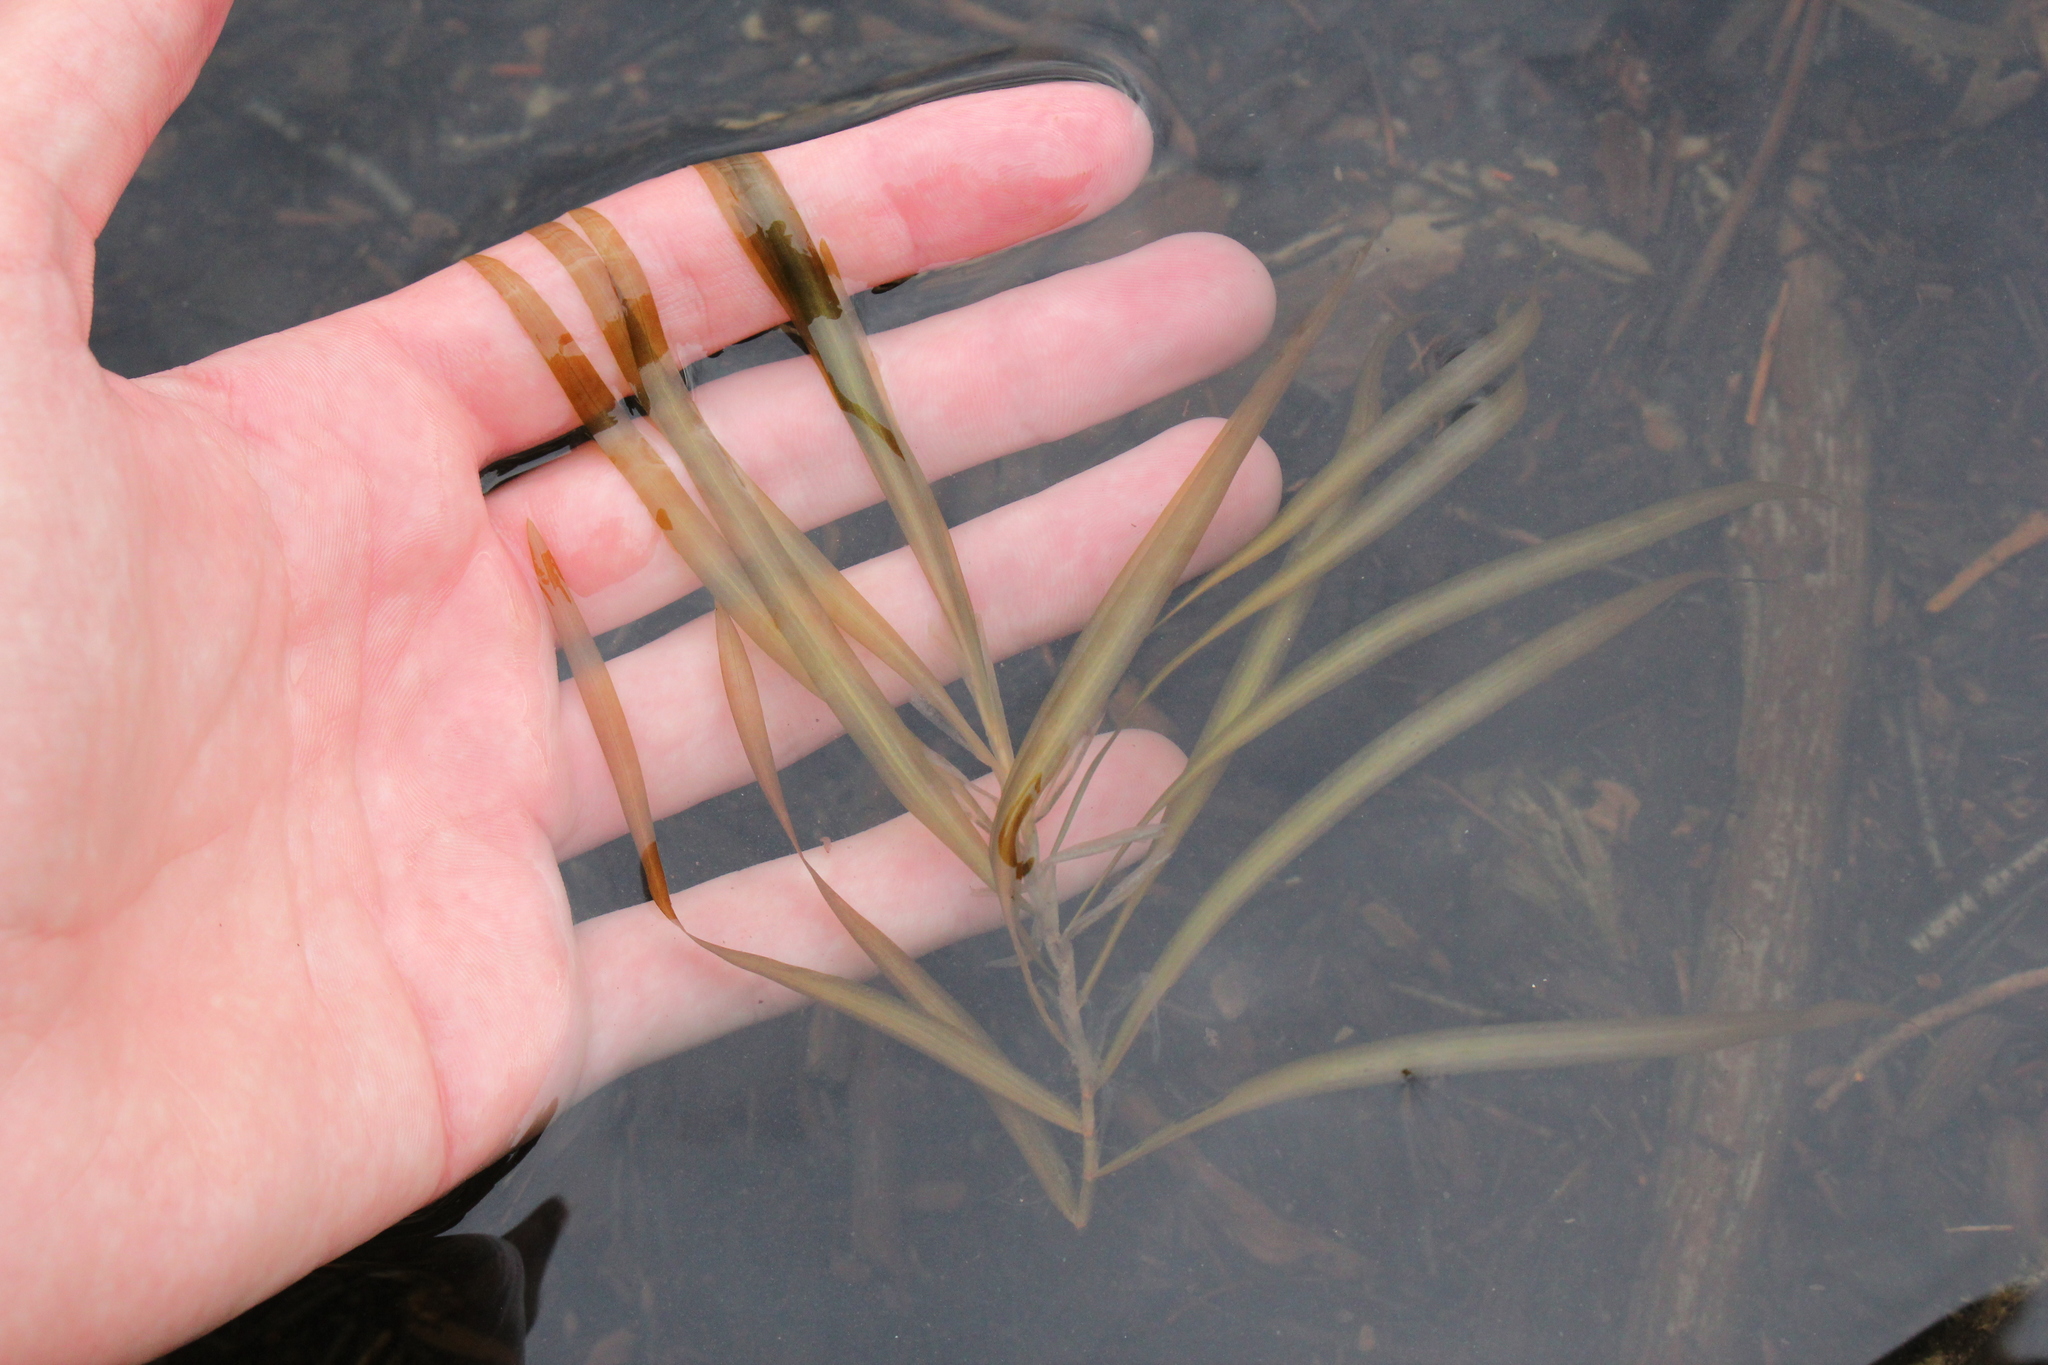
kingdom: Plantae
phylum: Tracheophyta
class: Liliopsida
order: Alismatales
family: Potamogetonaceae
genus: Potamogeton
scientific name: Potamogeton epihydrus
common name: American pondweed
